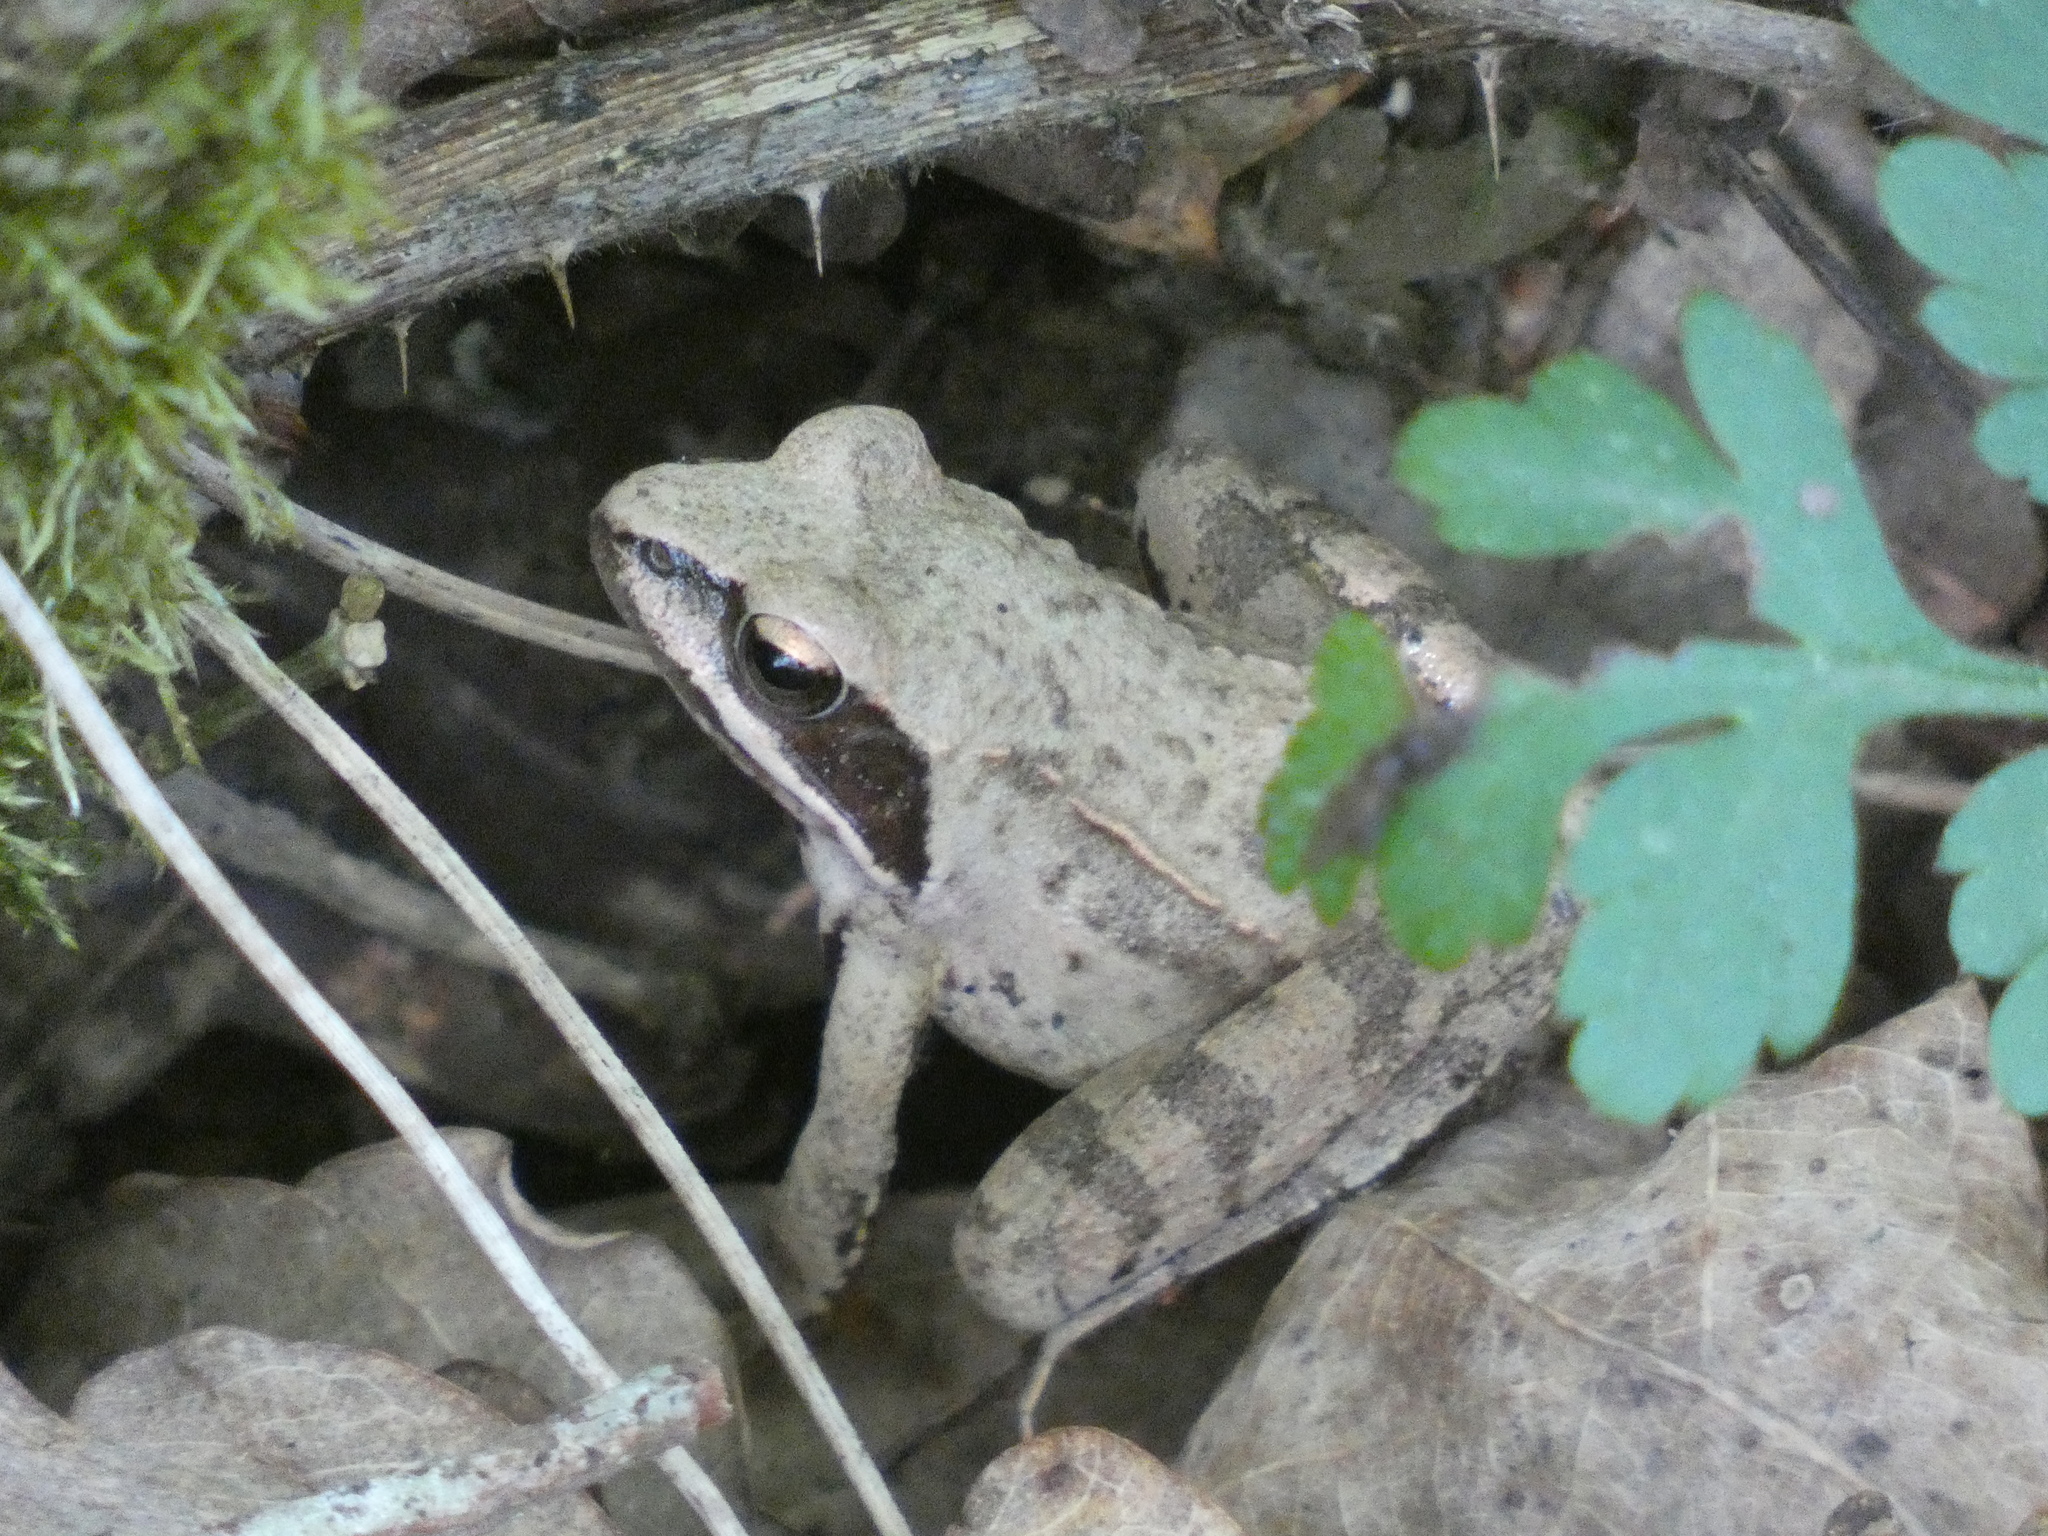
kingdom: Animalia
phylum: Chordata
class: Amphibia
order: Anura
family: Ranidae
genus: Rana
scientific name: Rana dalmatina
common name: Agile frog
